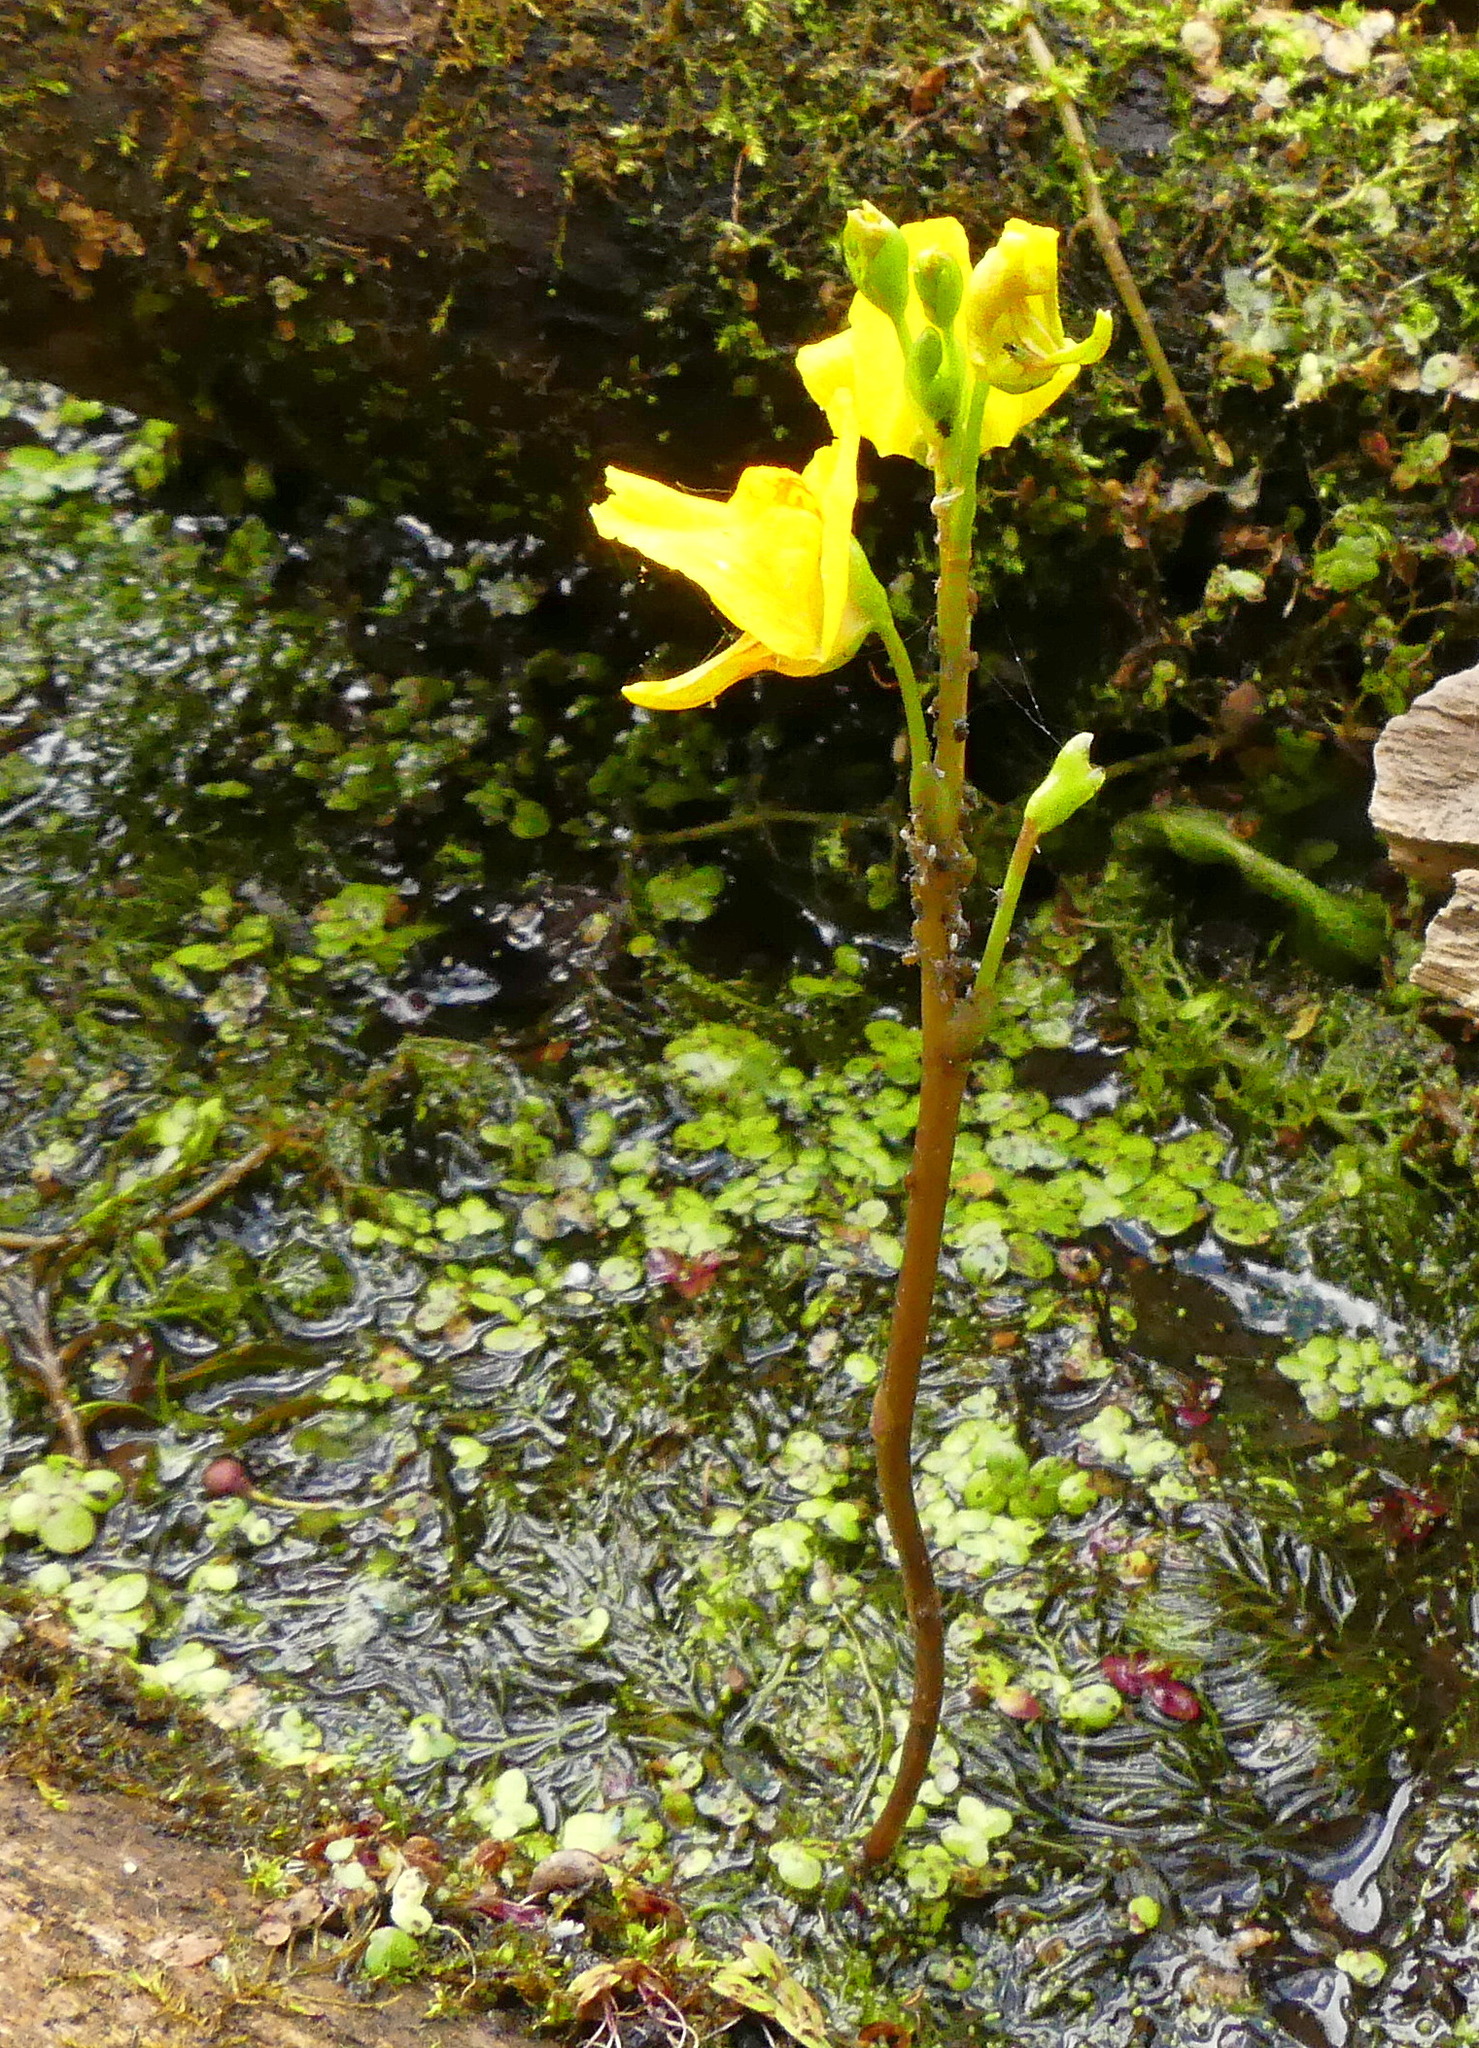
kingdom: Plantae
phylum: Tracheophyta
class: Magnoliopsida
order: Lamiales
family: Lentibulariaceae
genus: Utricularia
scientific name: Utricularia macrorhiza
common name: Common bladderwort
